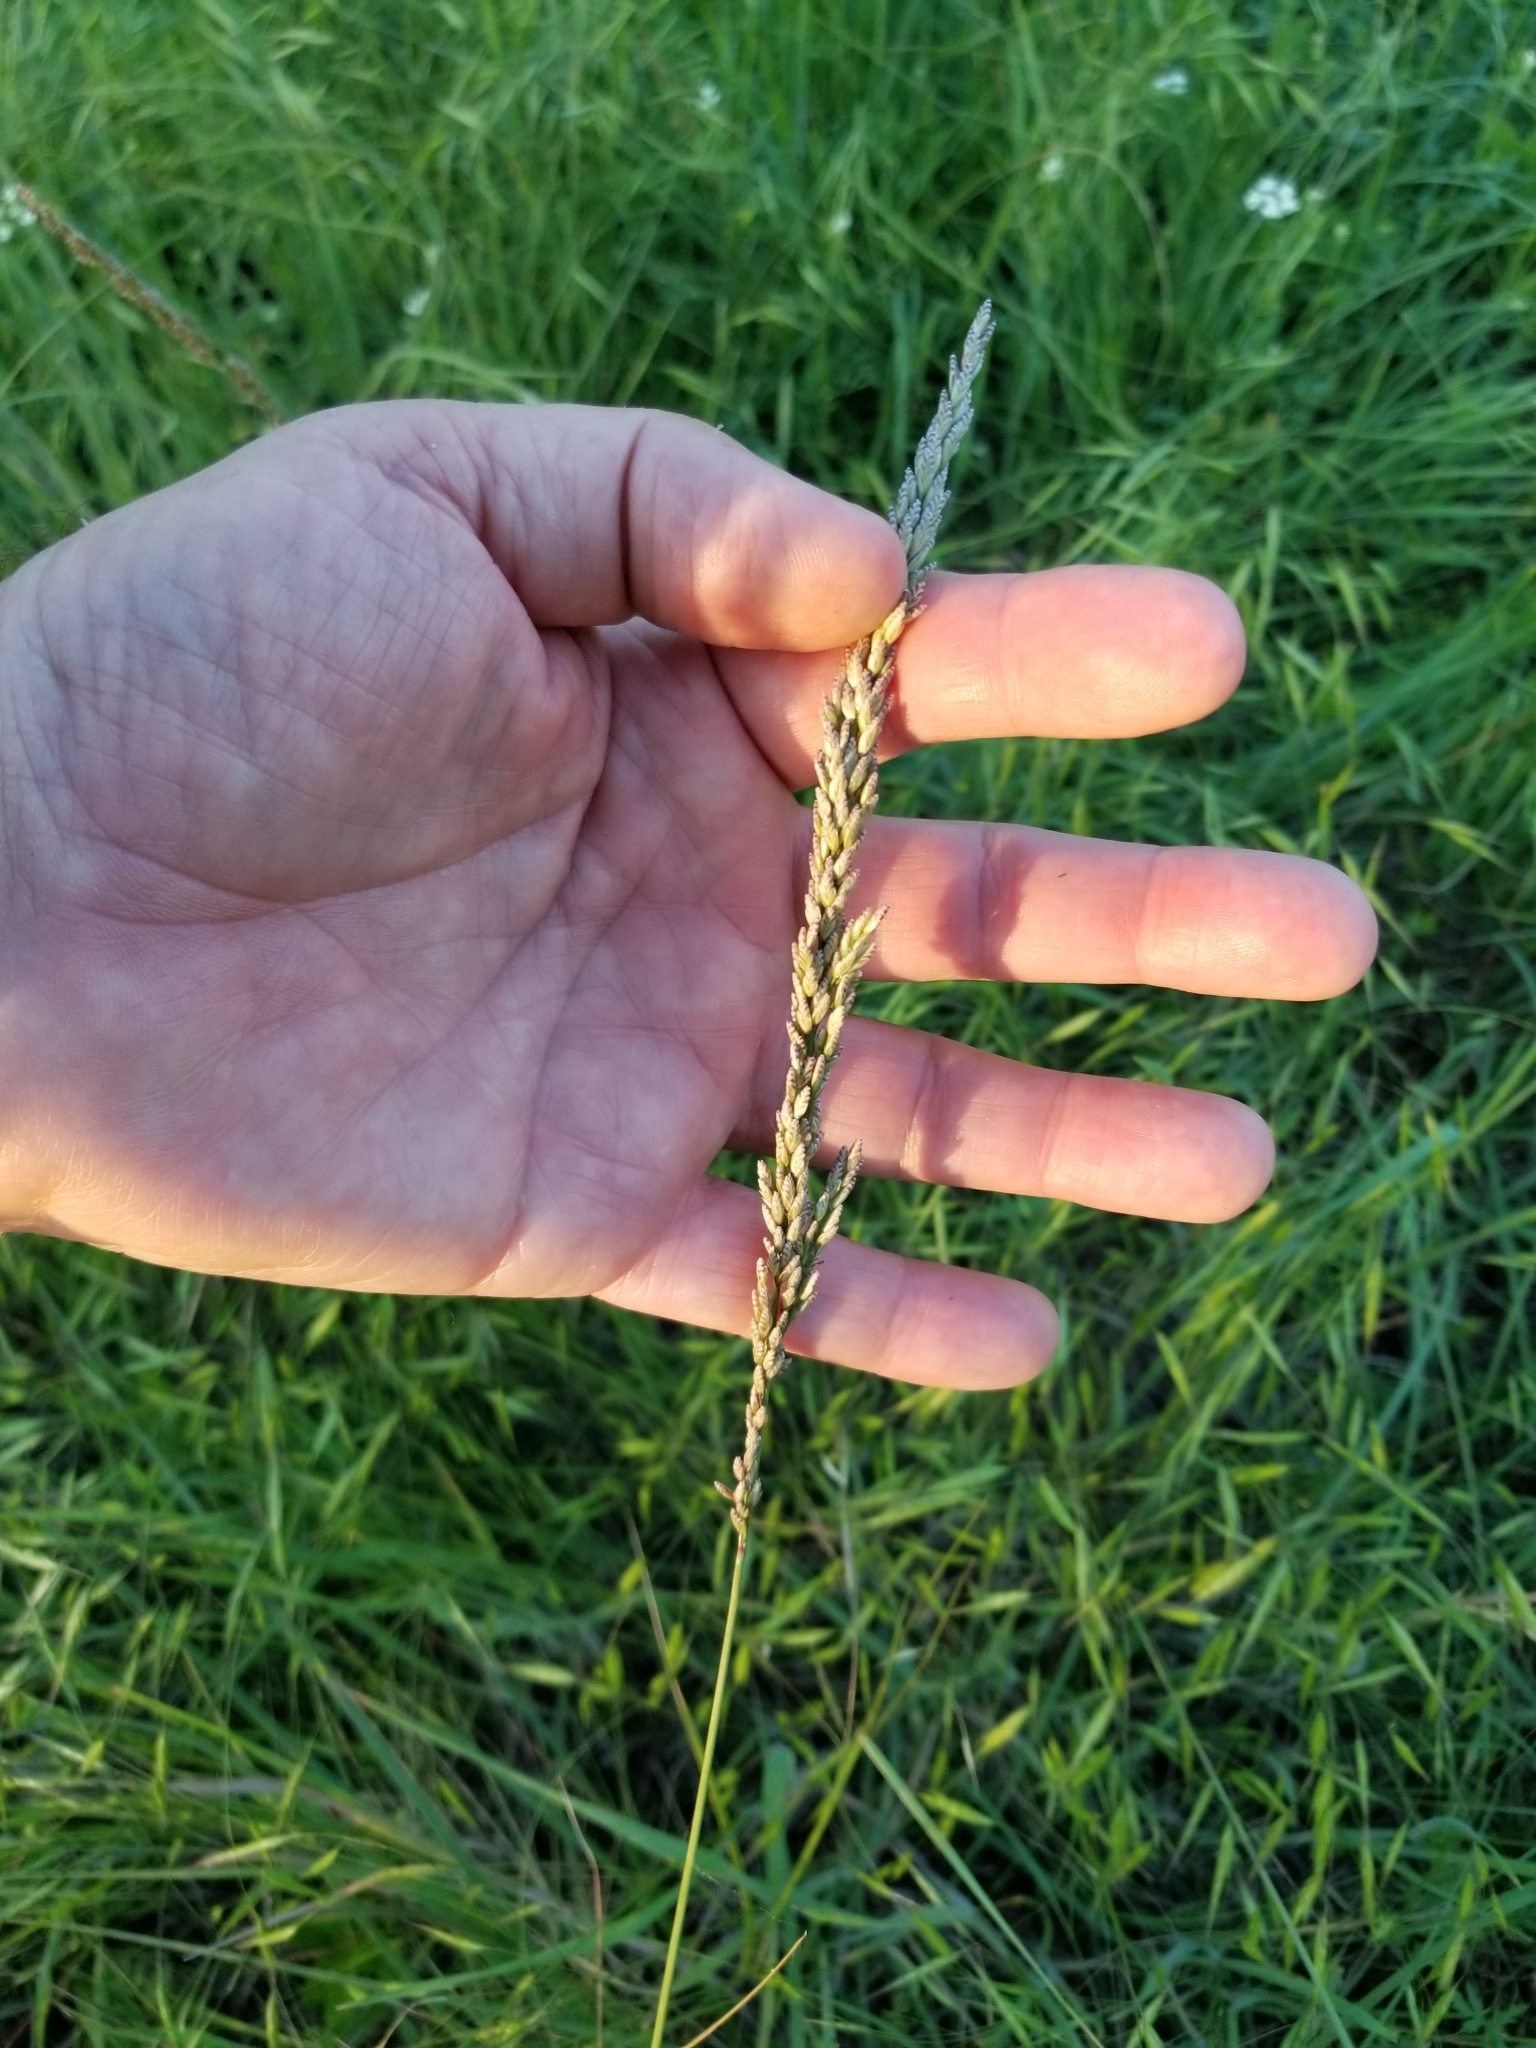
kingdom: Plantae
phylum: Tracheophyta
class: Liliopsida
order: Poales
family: Poaceae
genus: Tridens
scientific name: Tridens albescens
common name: White tridens
